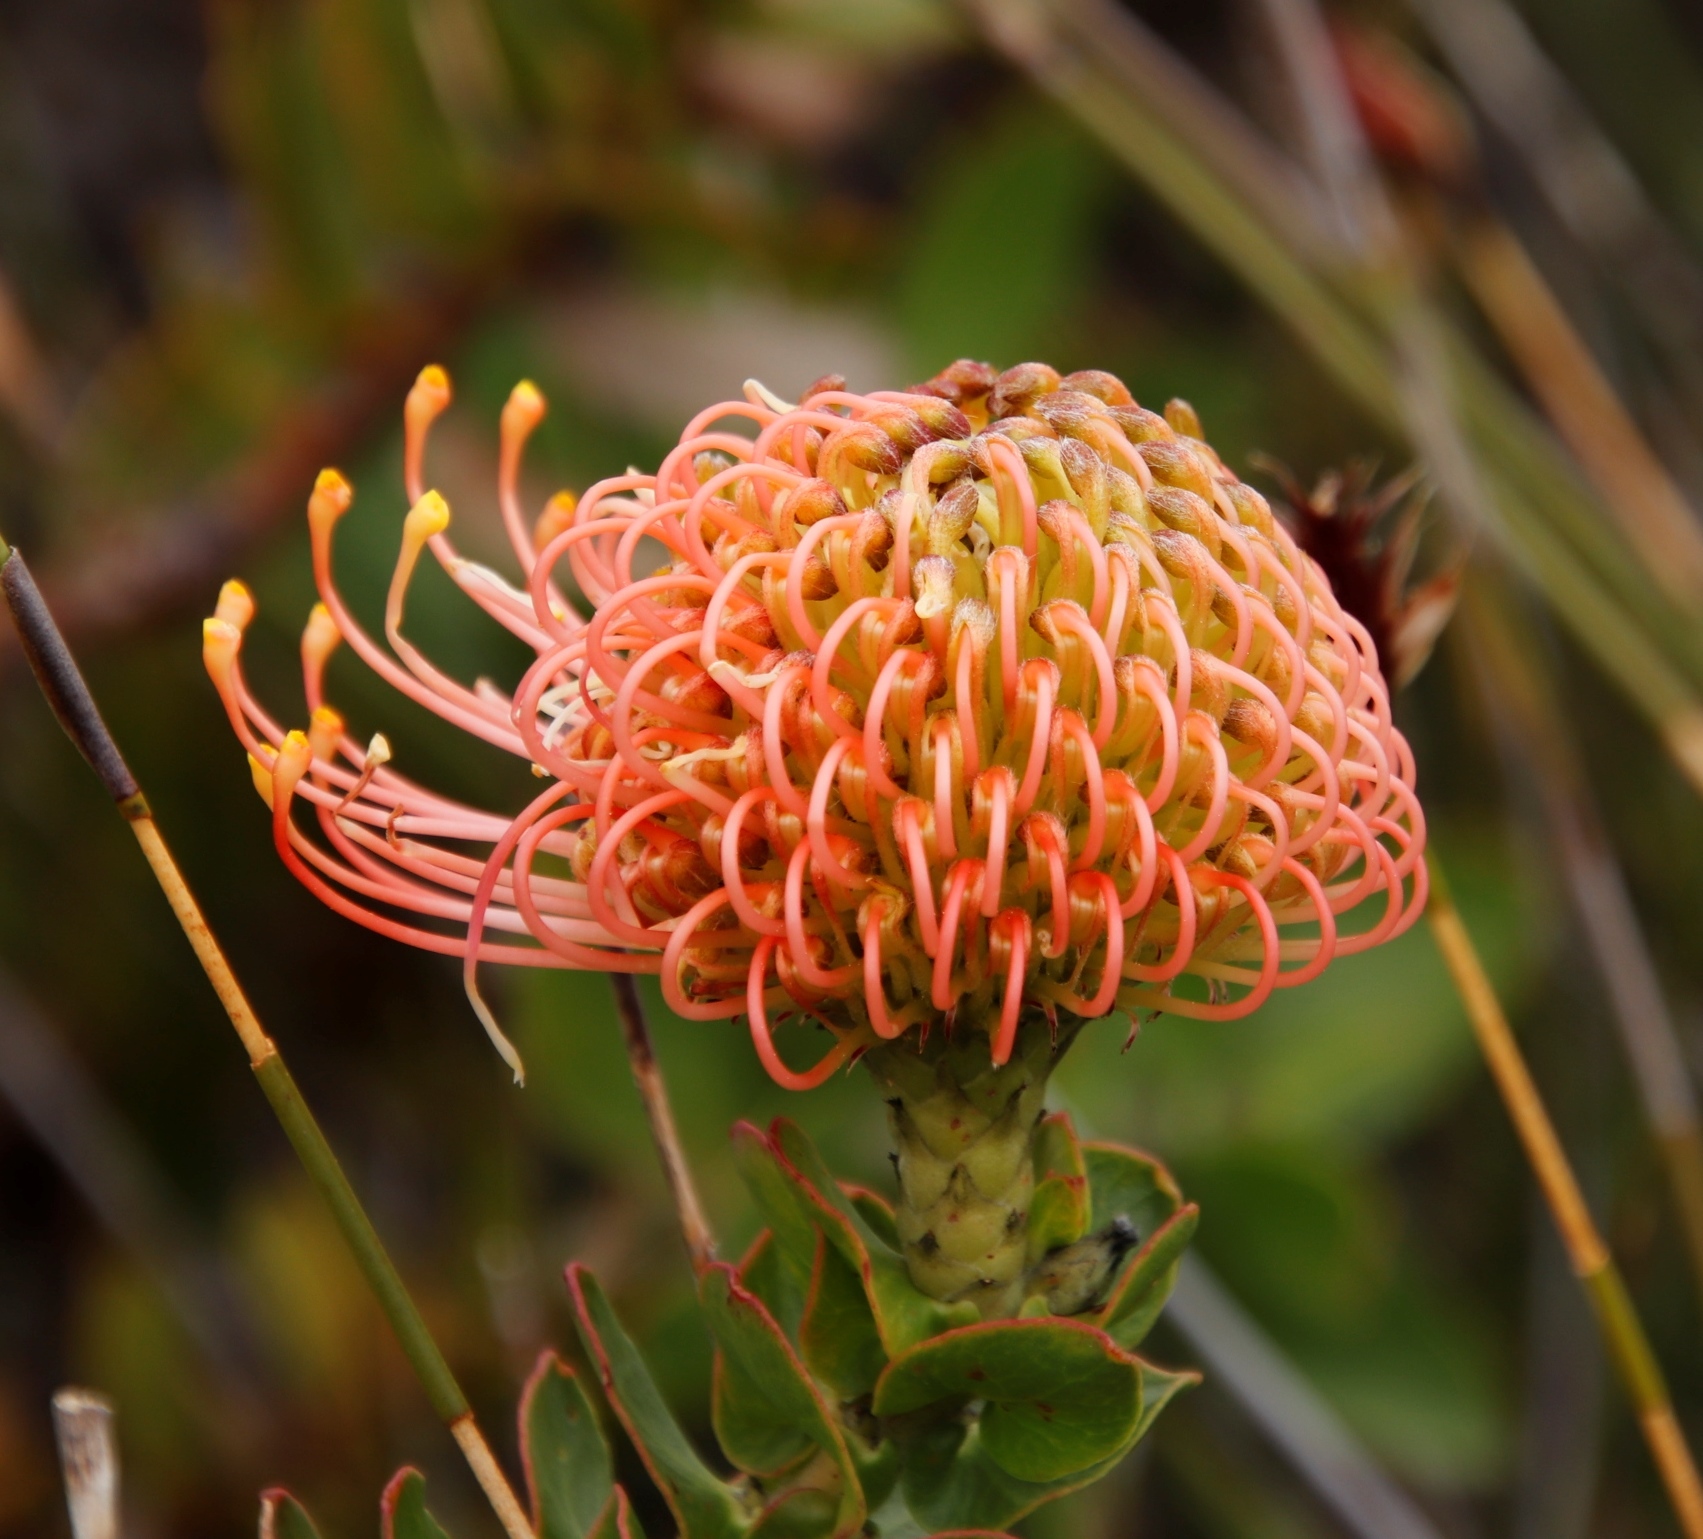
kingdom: Plantae
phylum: Tracheophyta
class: Magnoliopsida
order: Proteales
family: Proteaceae
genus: Leucospermum
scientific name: Leucospermum cordifolium
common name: Red pincushion-protea
